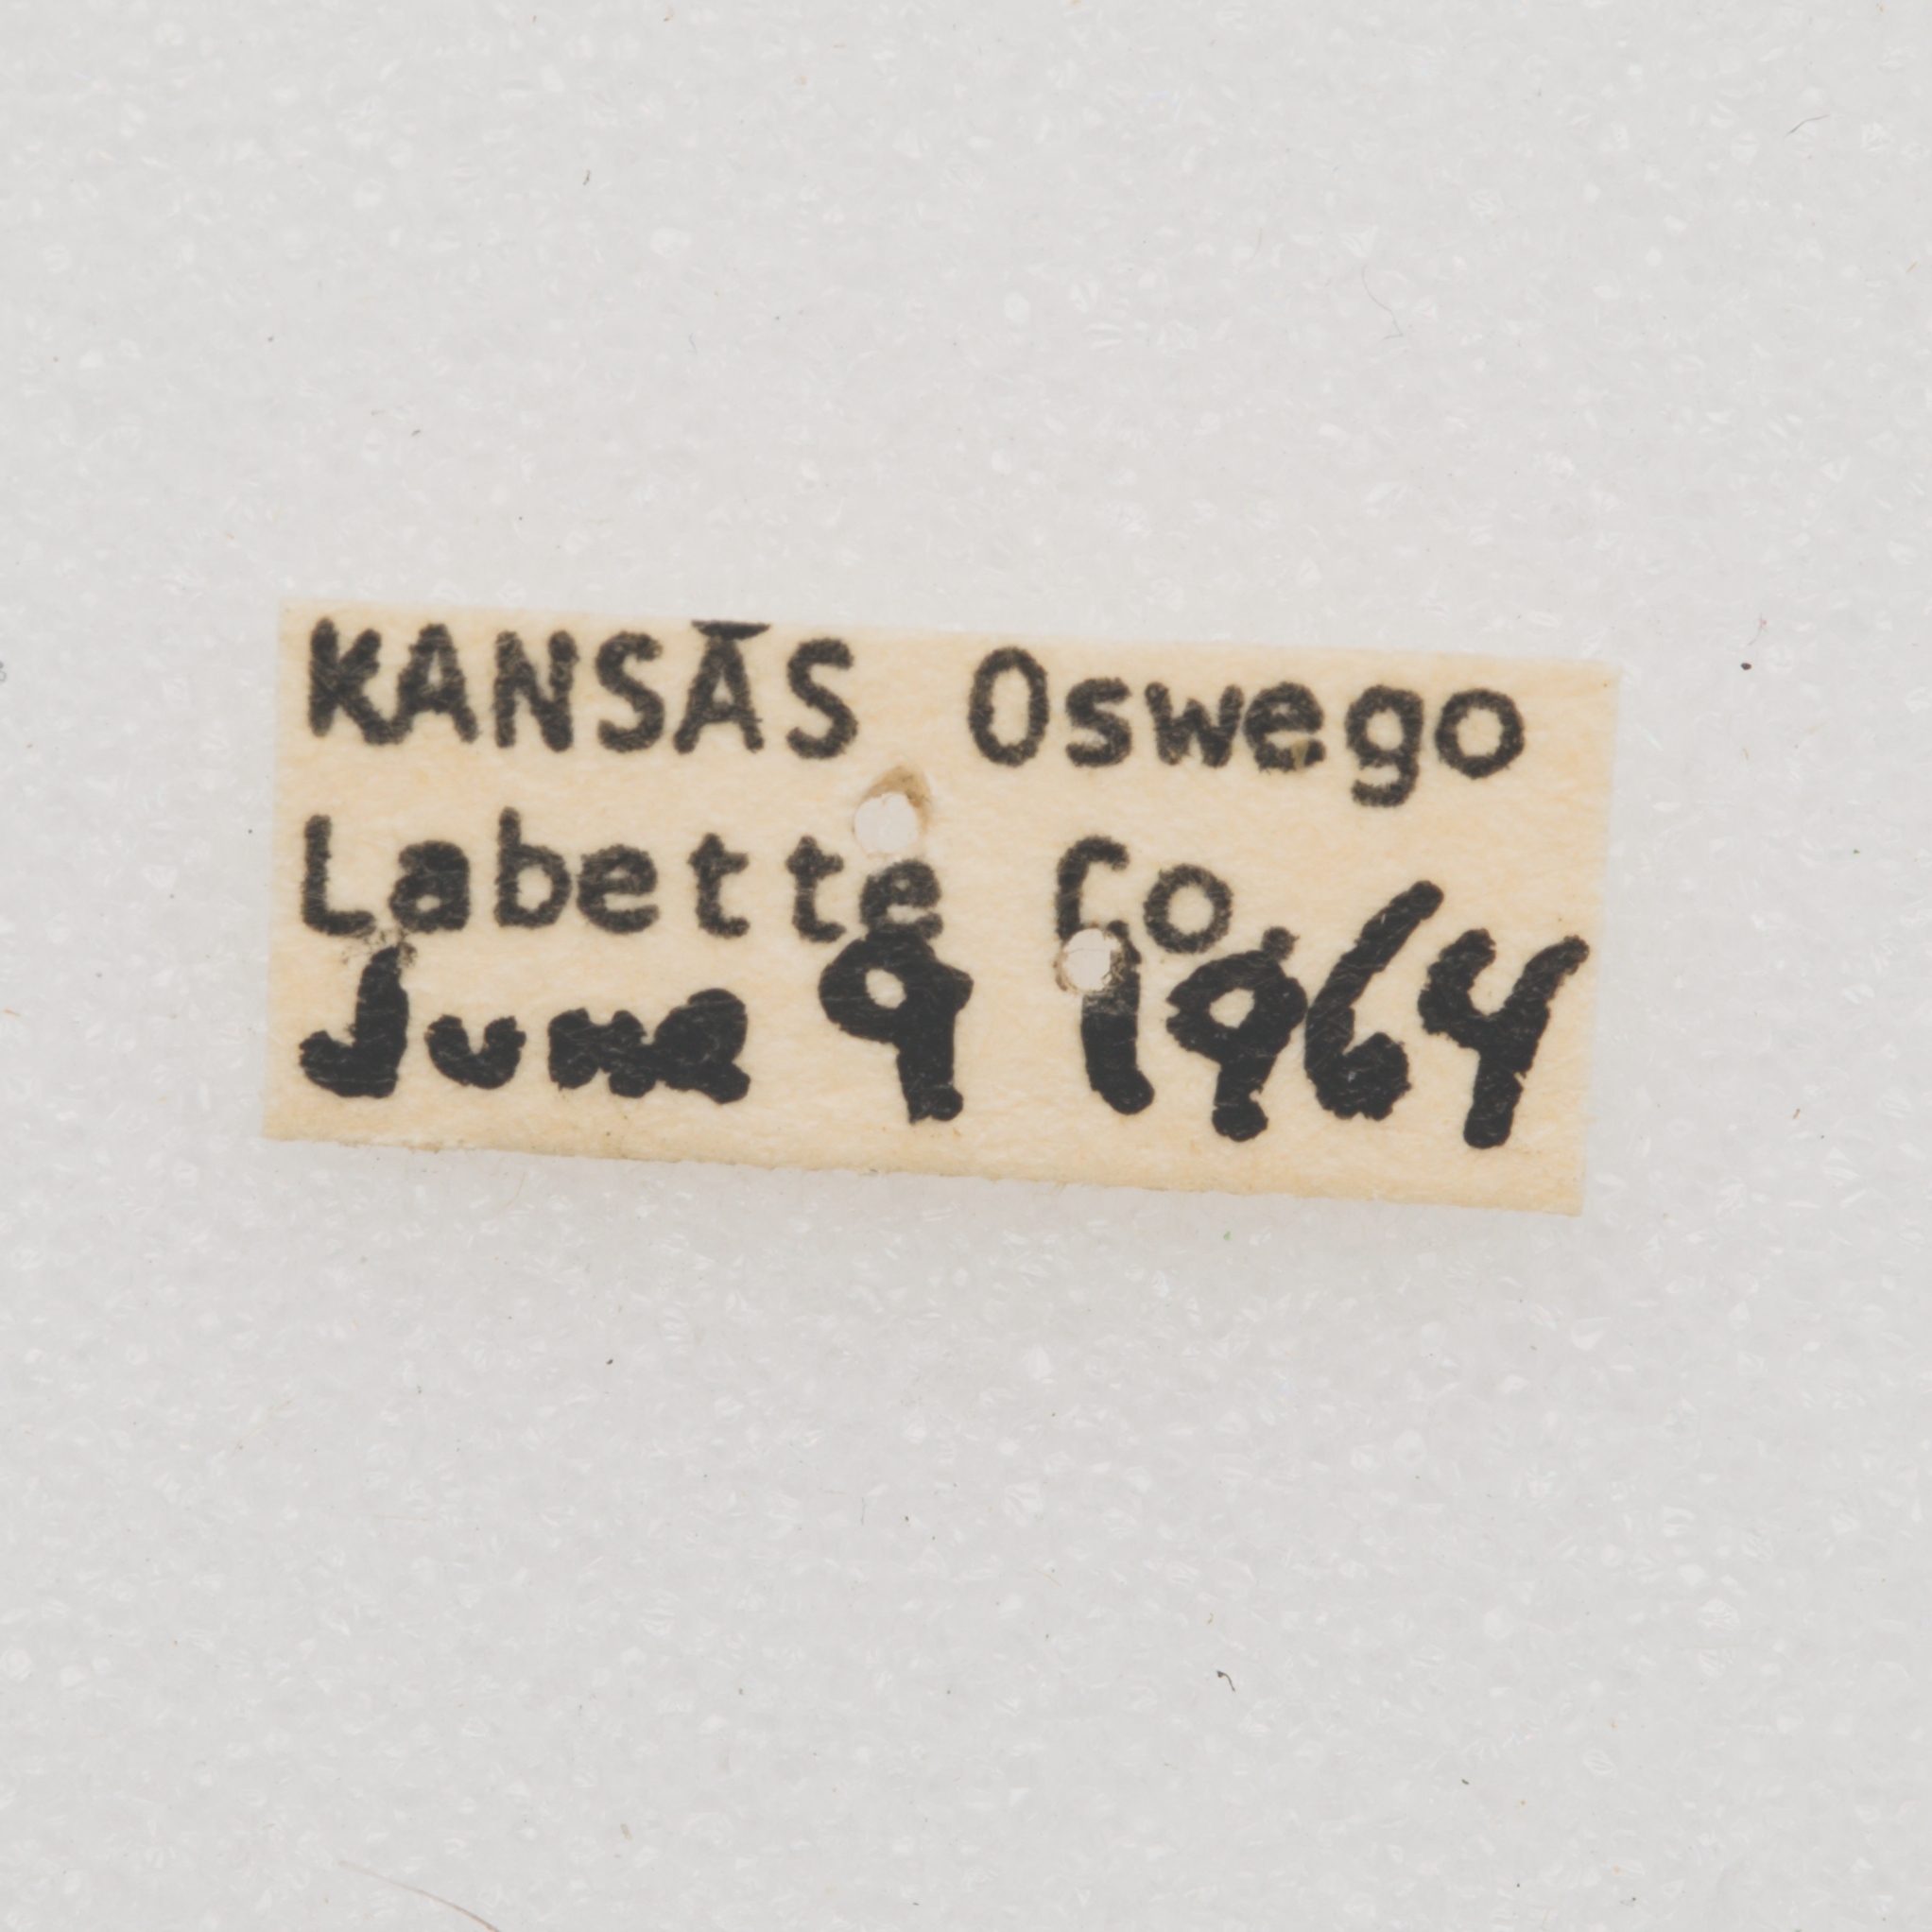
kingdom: Animalia
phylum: Arthropoda
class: Insecta
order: Coleoptera
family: Cerambycidae
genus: Ataxia
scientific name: Ataxia hubbardi
